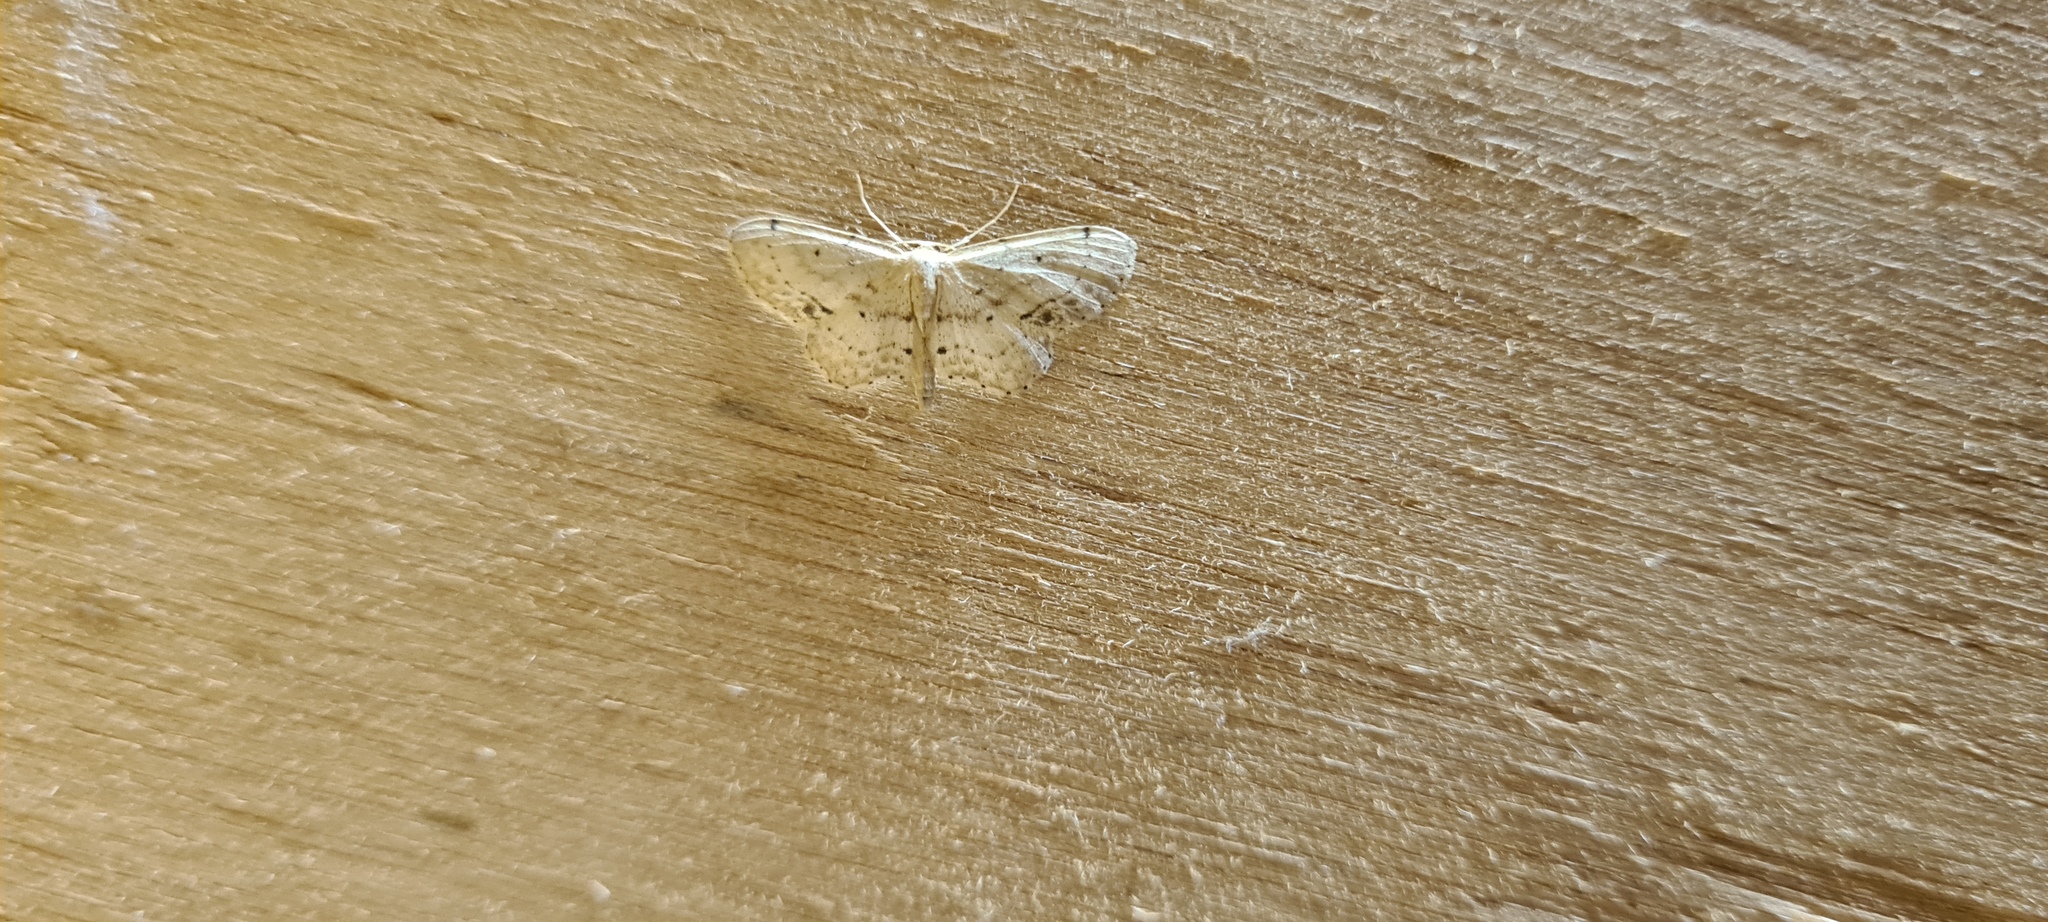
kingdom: Animalia
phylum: Arthropoda
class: Insecta
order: Lepidoptera
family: Geometridae
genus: Idaea
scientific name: Idaea dimidiata
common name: Single-dotted wave
